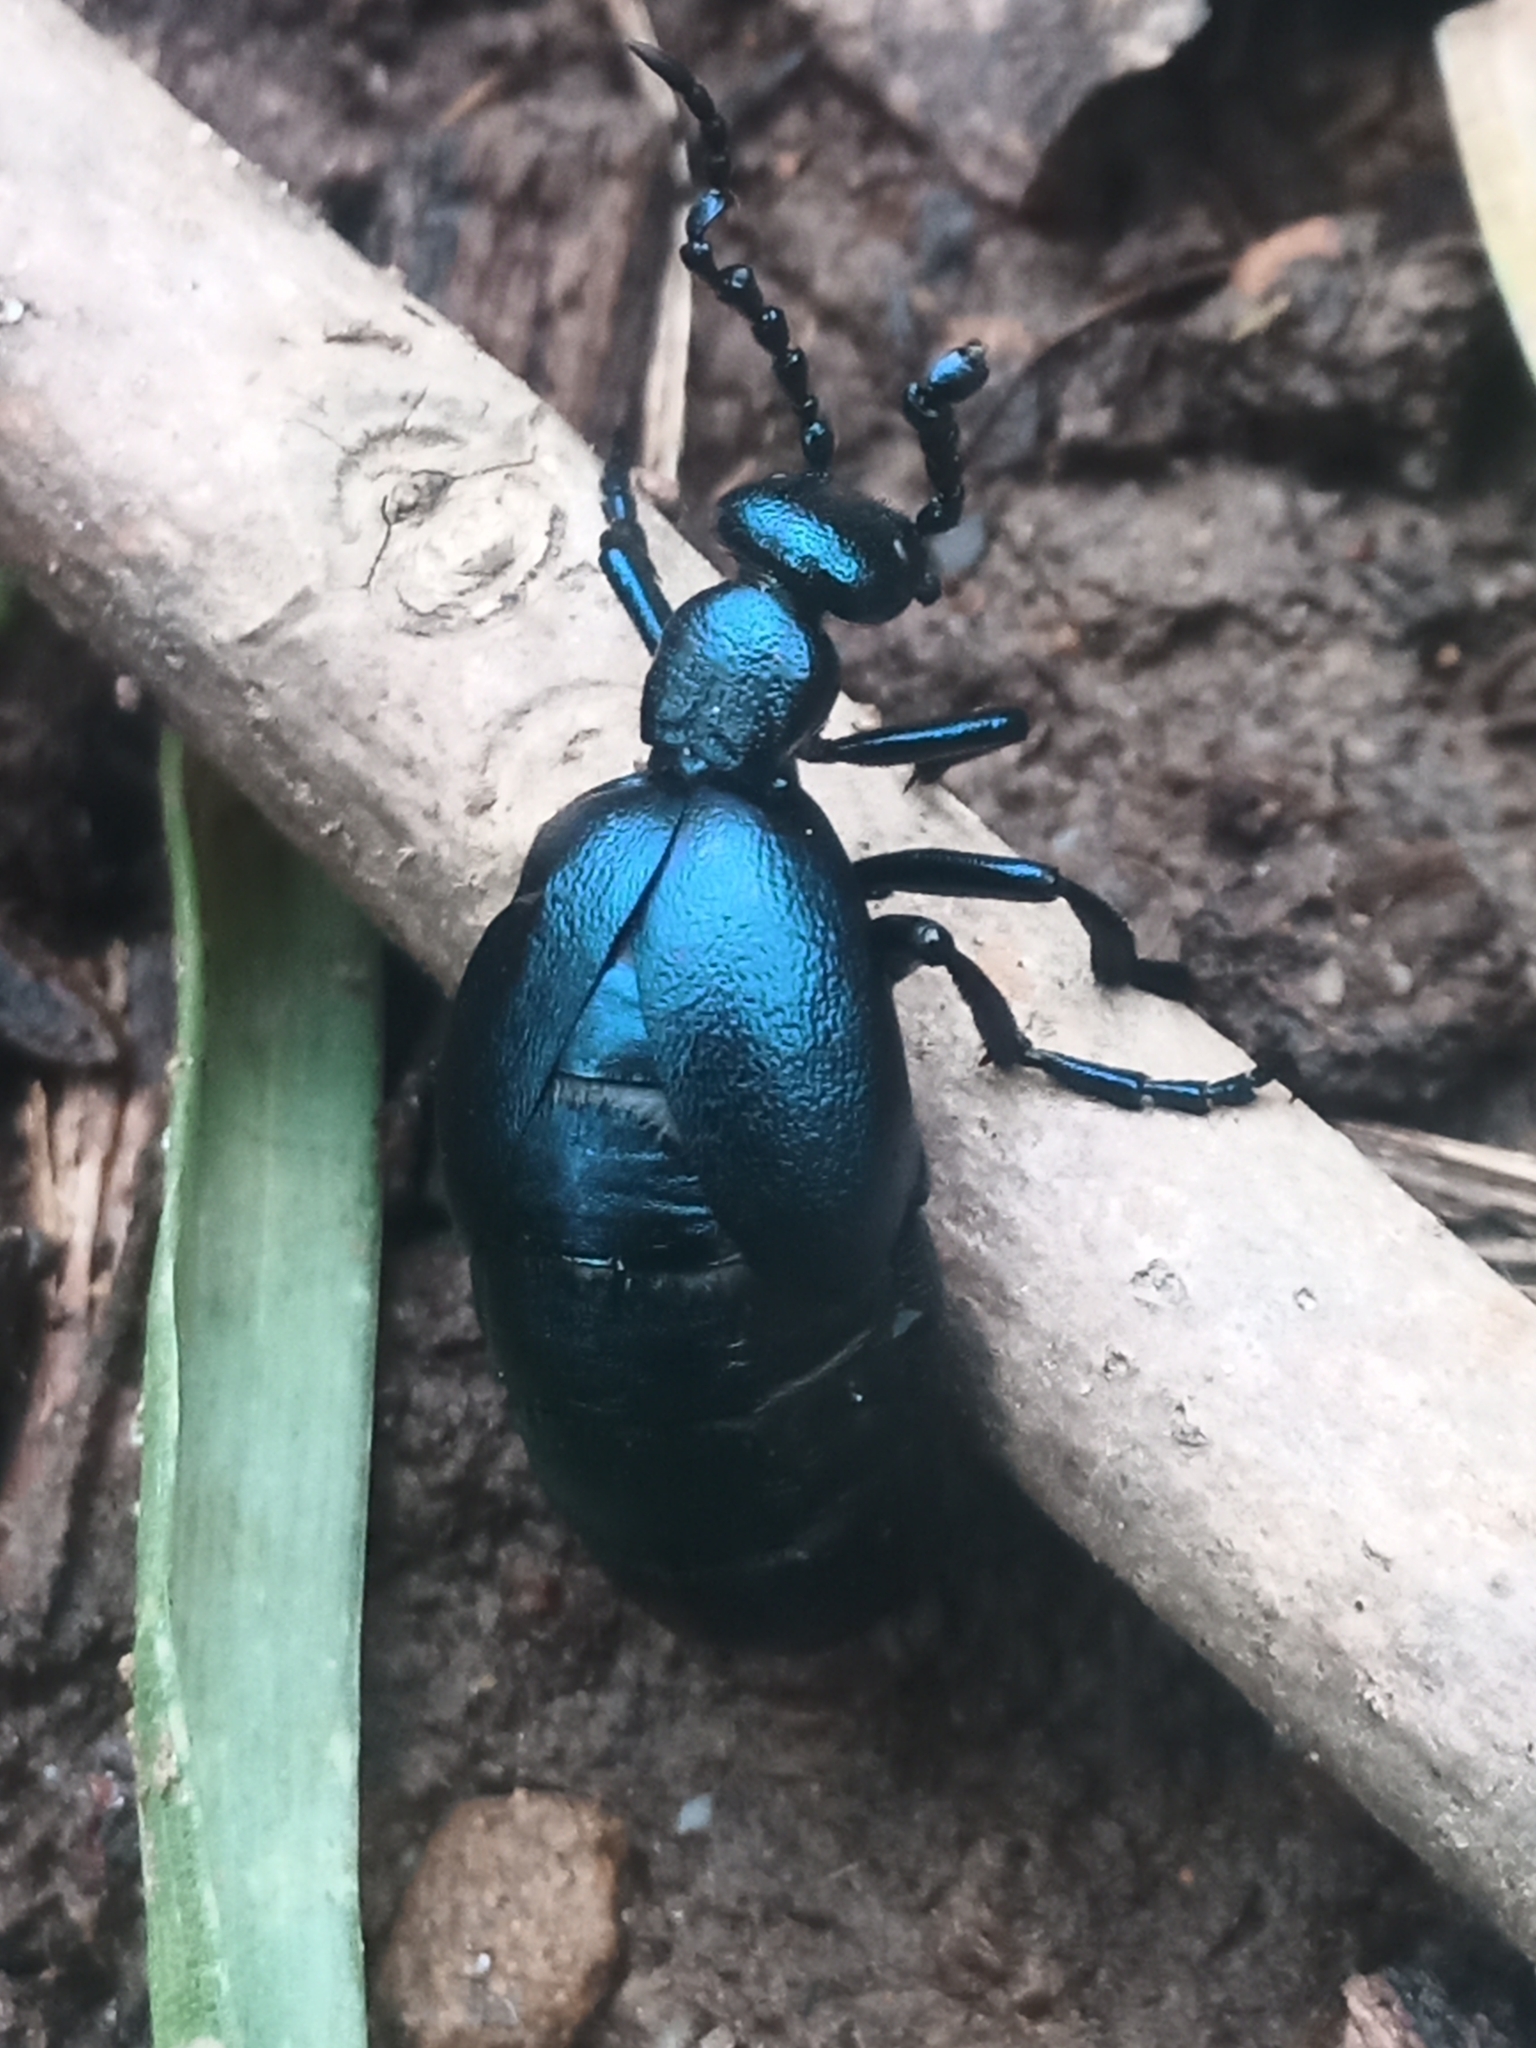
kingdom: Animalia
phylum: Arthropoda
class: Insecta
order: Coleoptera
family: Meloidae
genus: Meloe
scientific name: Meloe violaceus
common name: Violet oil-beetle
